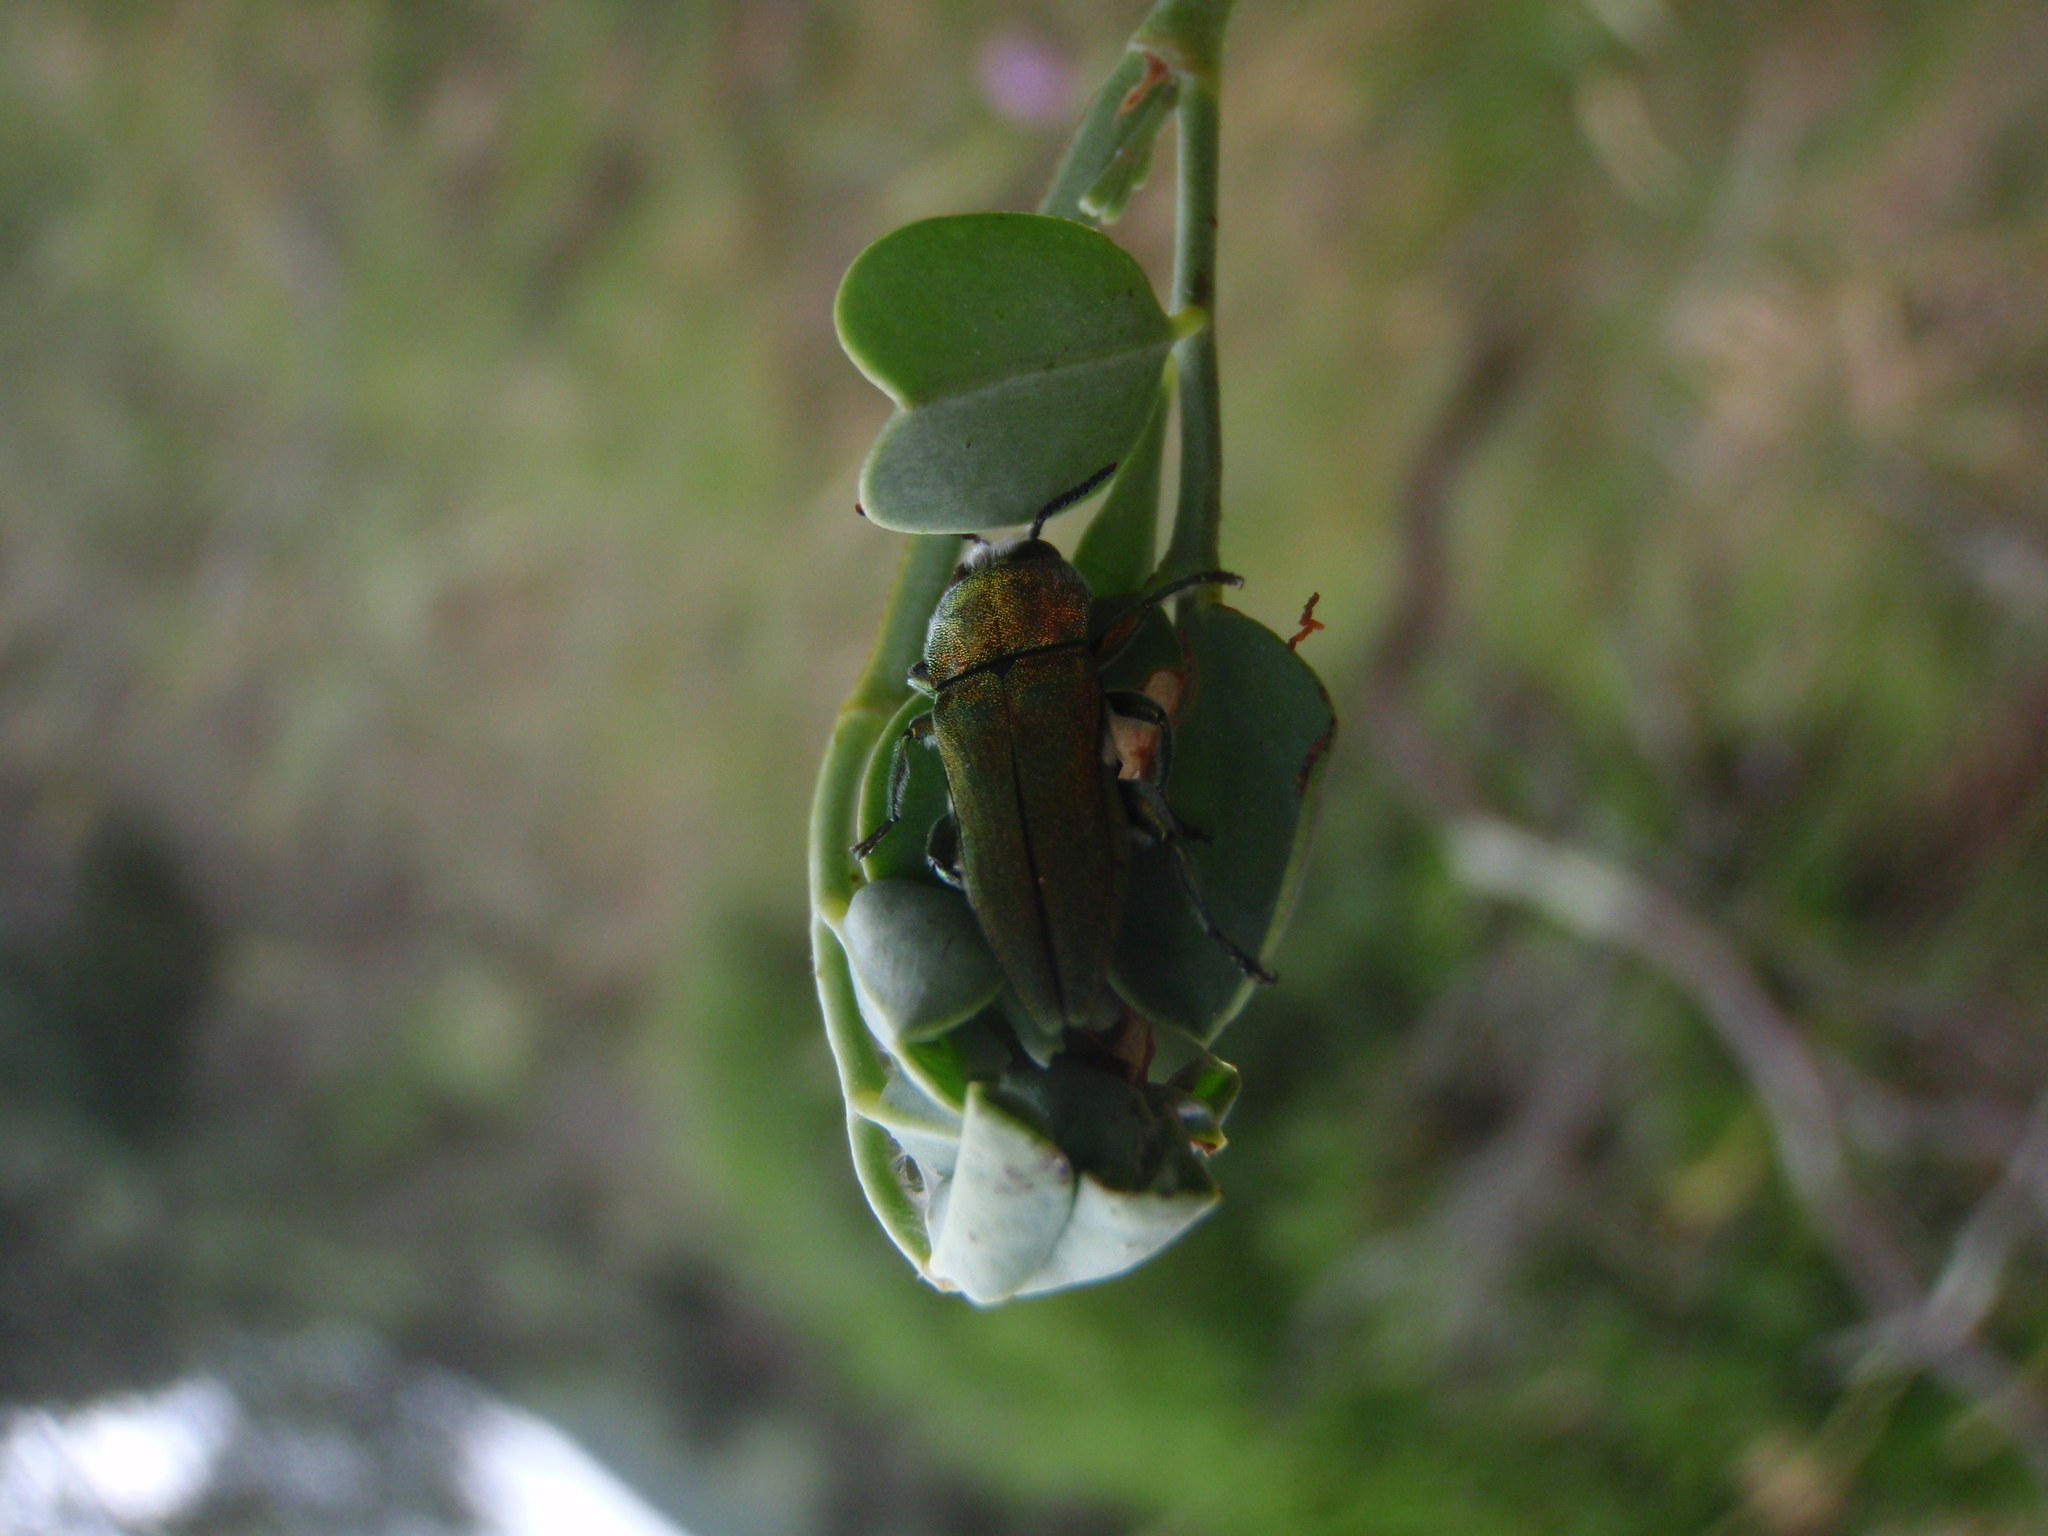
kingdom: Animalia
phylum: Arthropoda
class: Insecta
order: Coleoptera
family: Buprestidae
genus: Anthaxia
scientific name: Anthaxia hungarica
